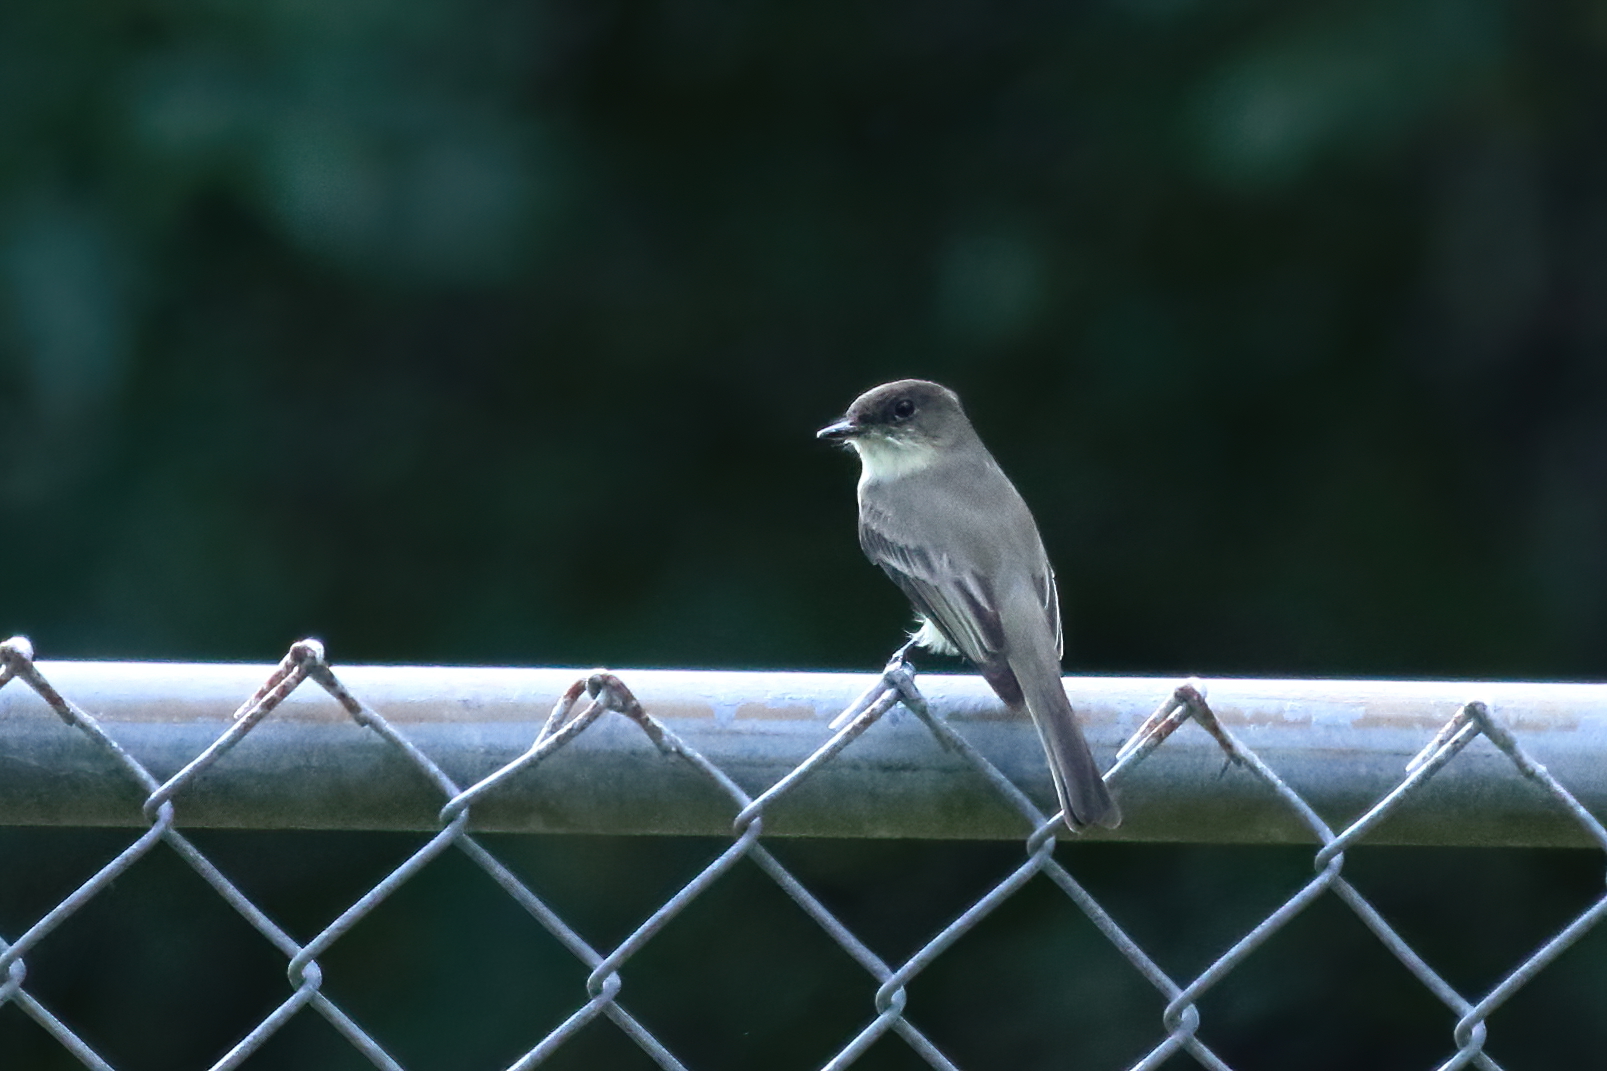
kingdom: Animalia
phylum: Chordata
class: Aves
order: Passeriformes
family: Tyrannidae
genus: Sayornis
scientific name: Sayornis phoebe
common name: Eastern phoebe
